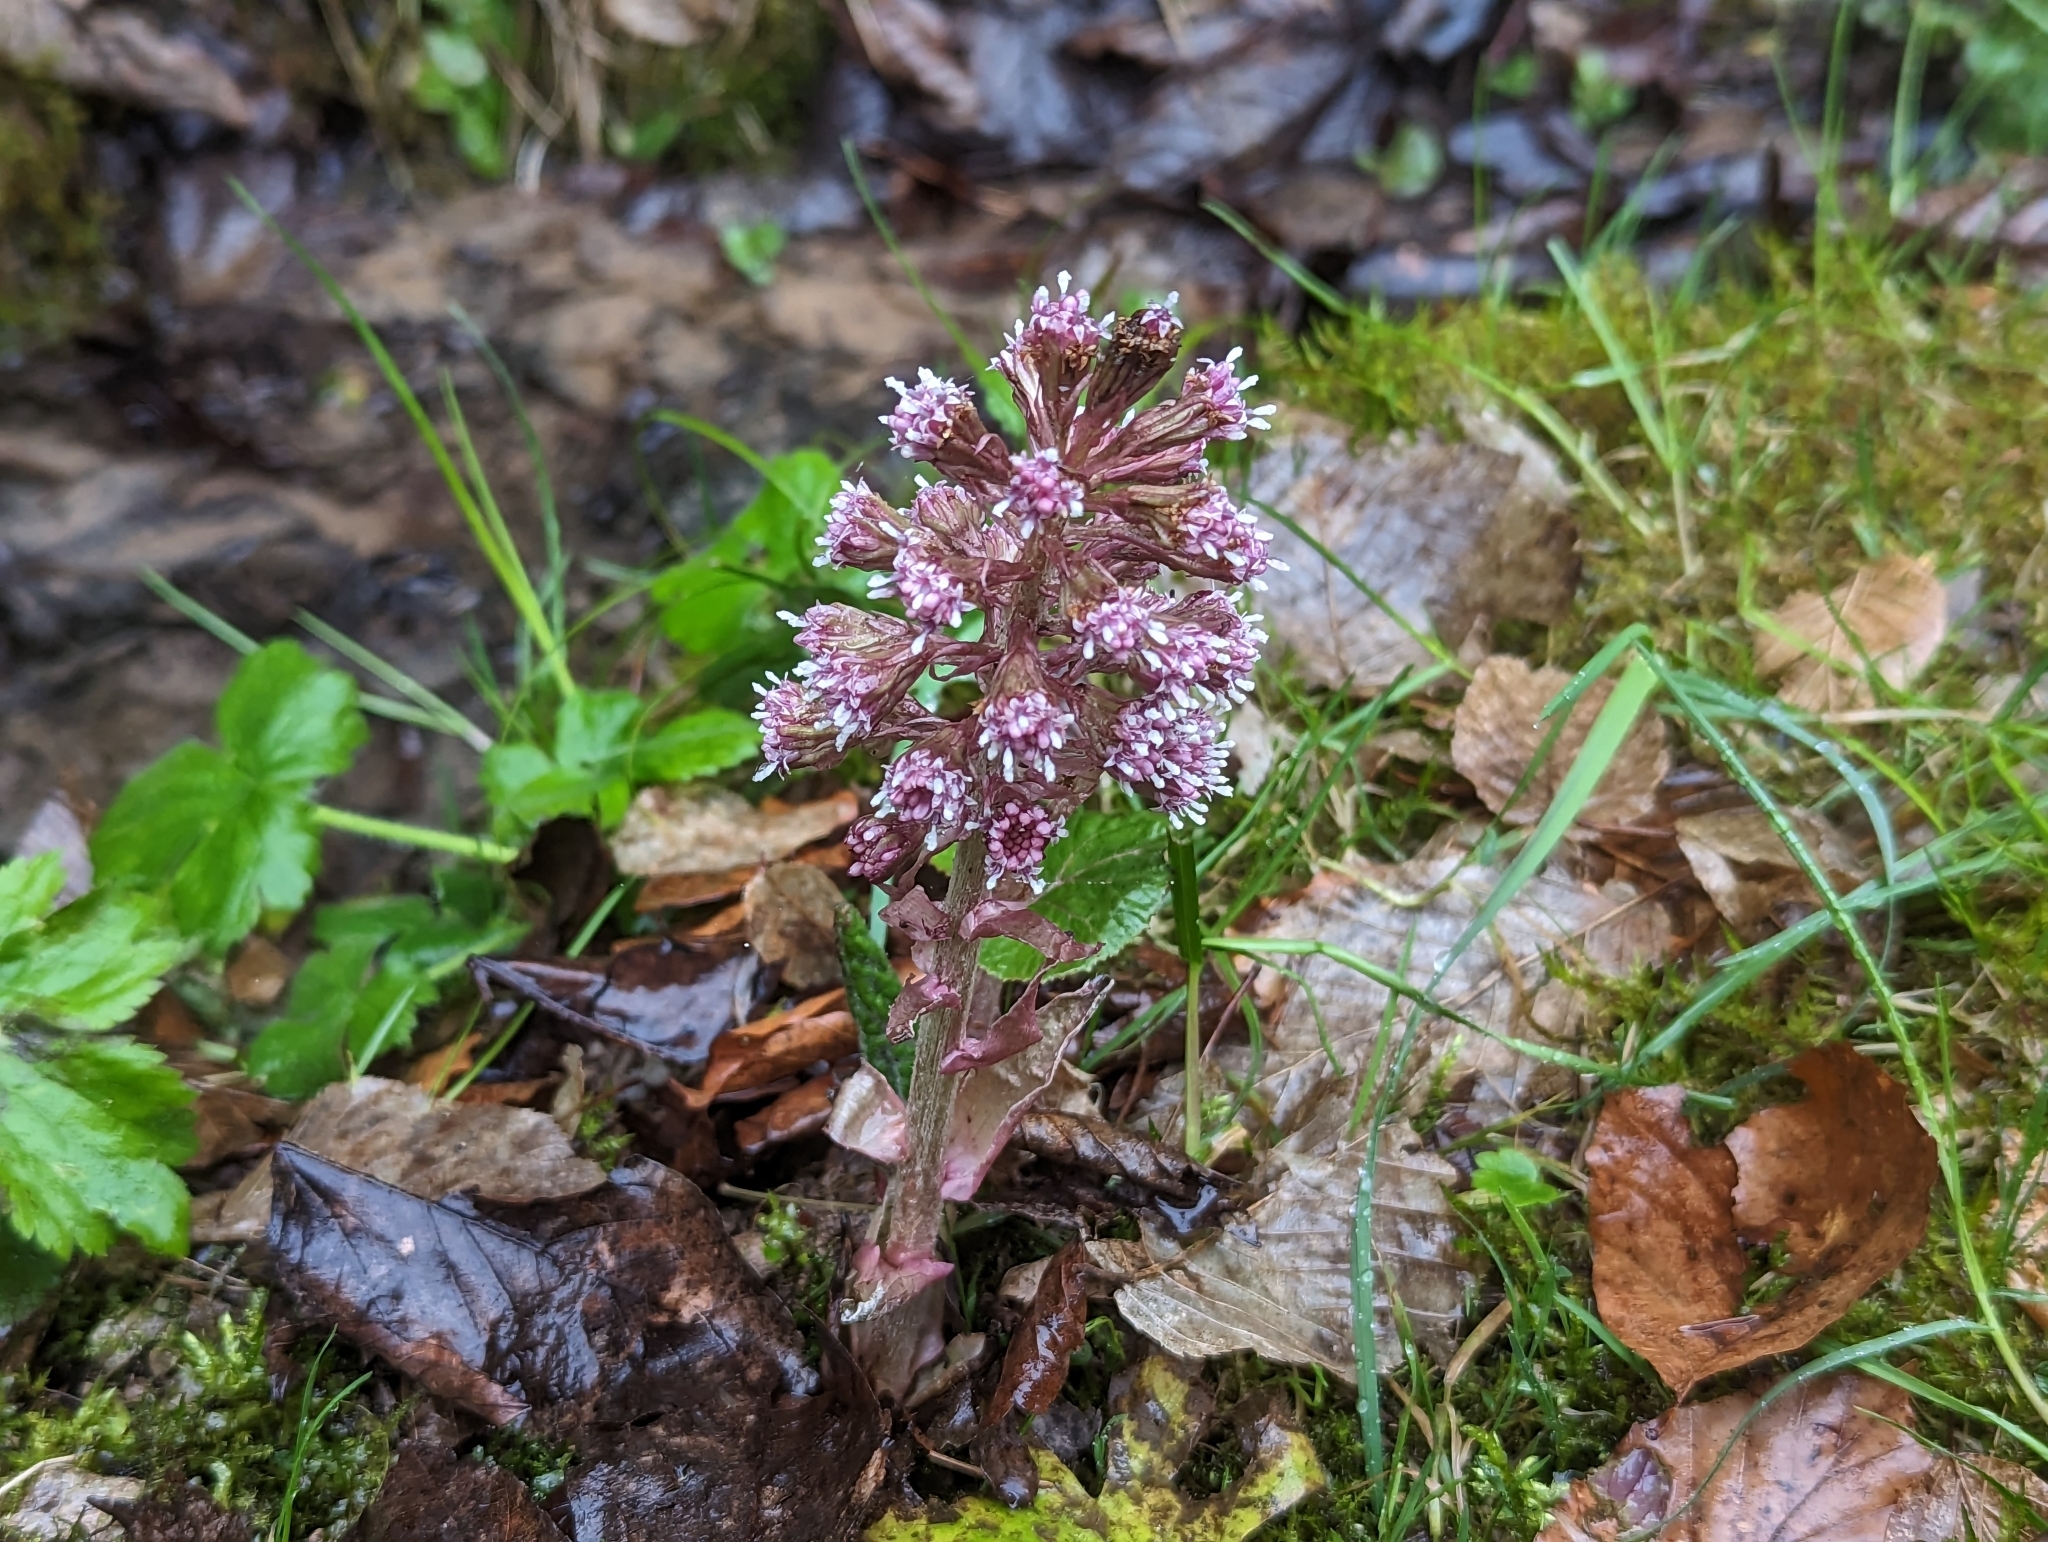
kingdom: Plantae
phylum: Tracheophyta
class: Magnoliopsida
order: Asterales
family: Asteraceae
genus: Petasites
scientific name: Petasites hybridus
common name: Butterbur
